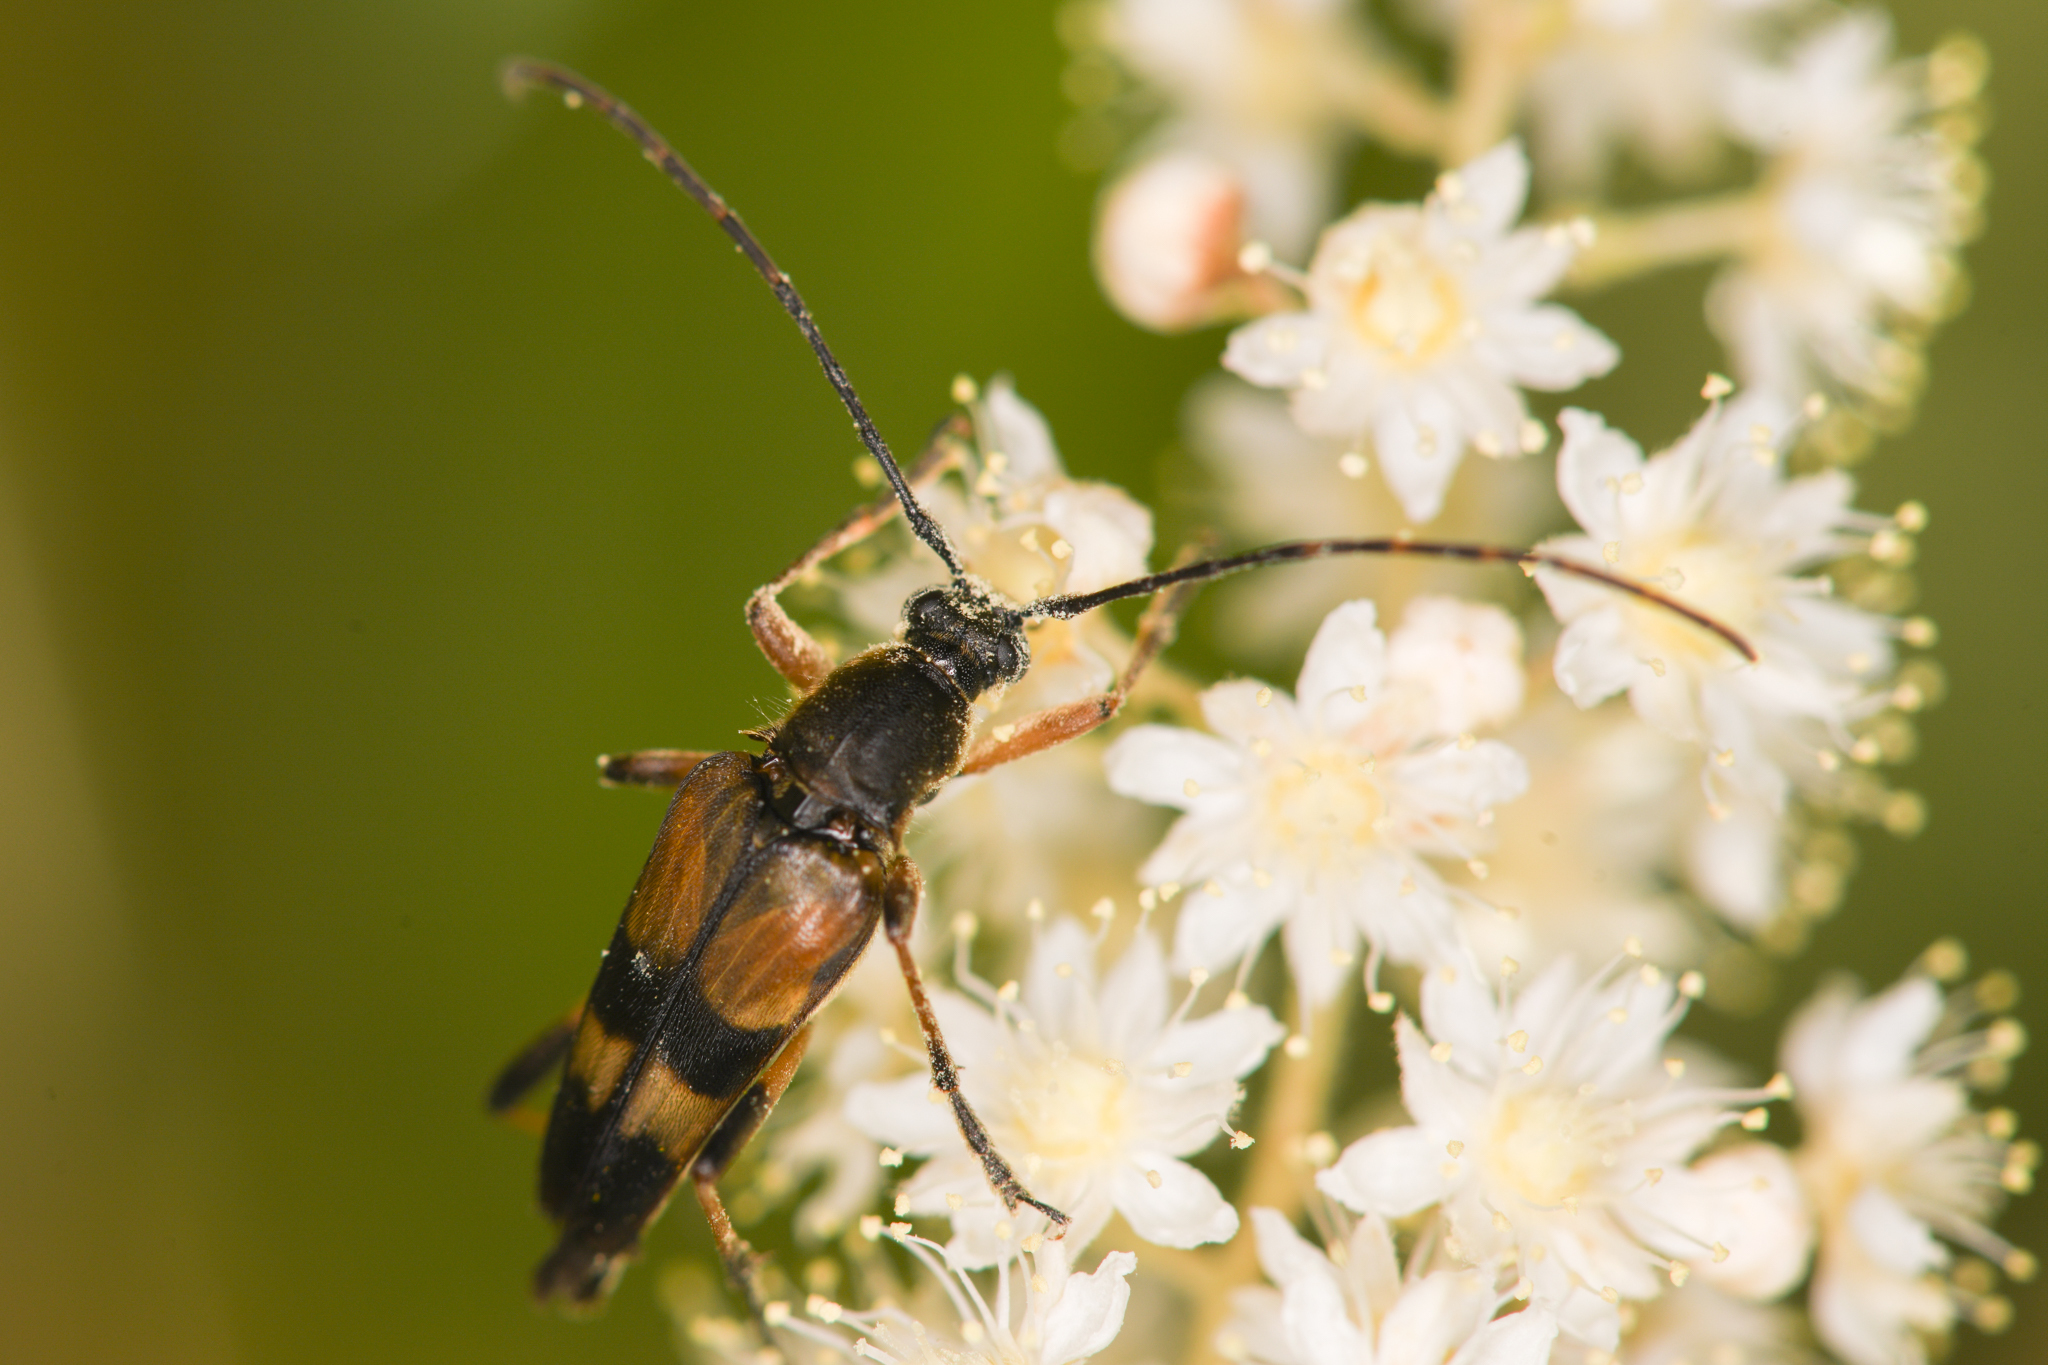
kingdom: Animalia
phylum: Arthropoda
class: Insecta
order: Coleoptera
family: Cerambycidae
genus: Etorofus
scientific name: Etorofus obliteratus
